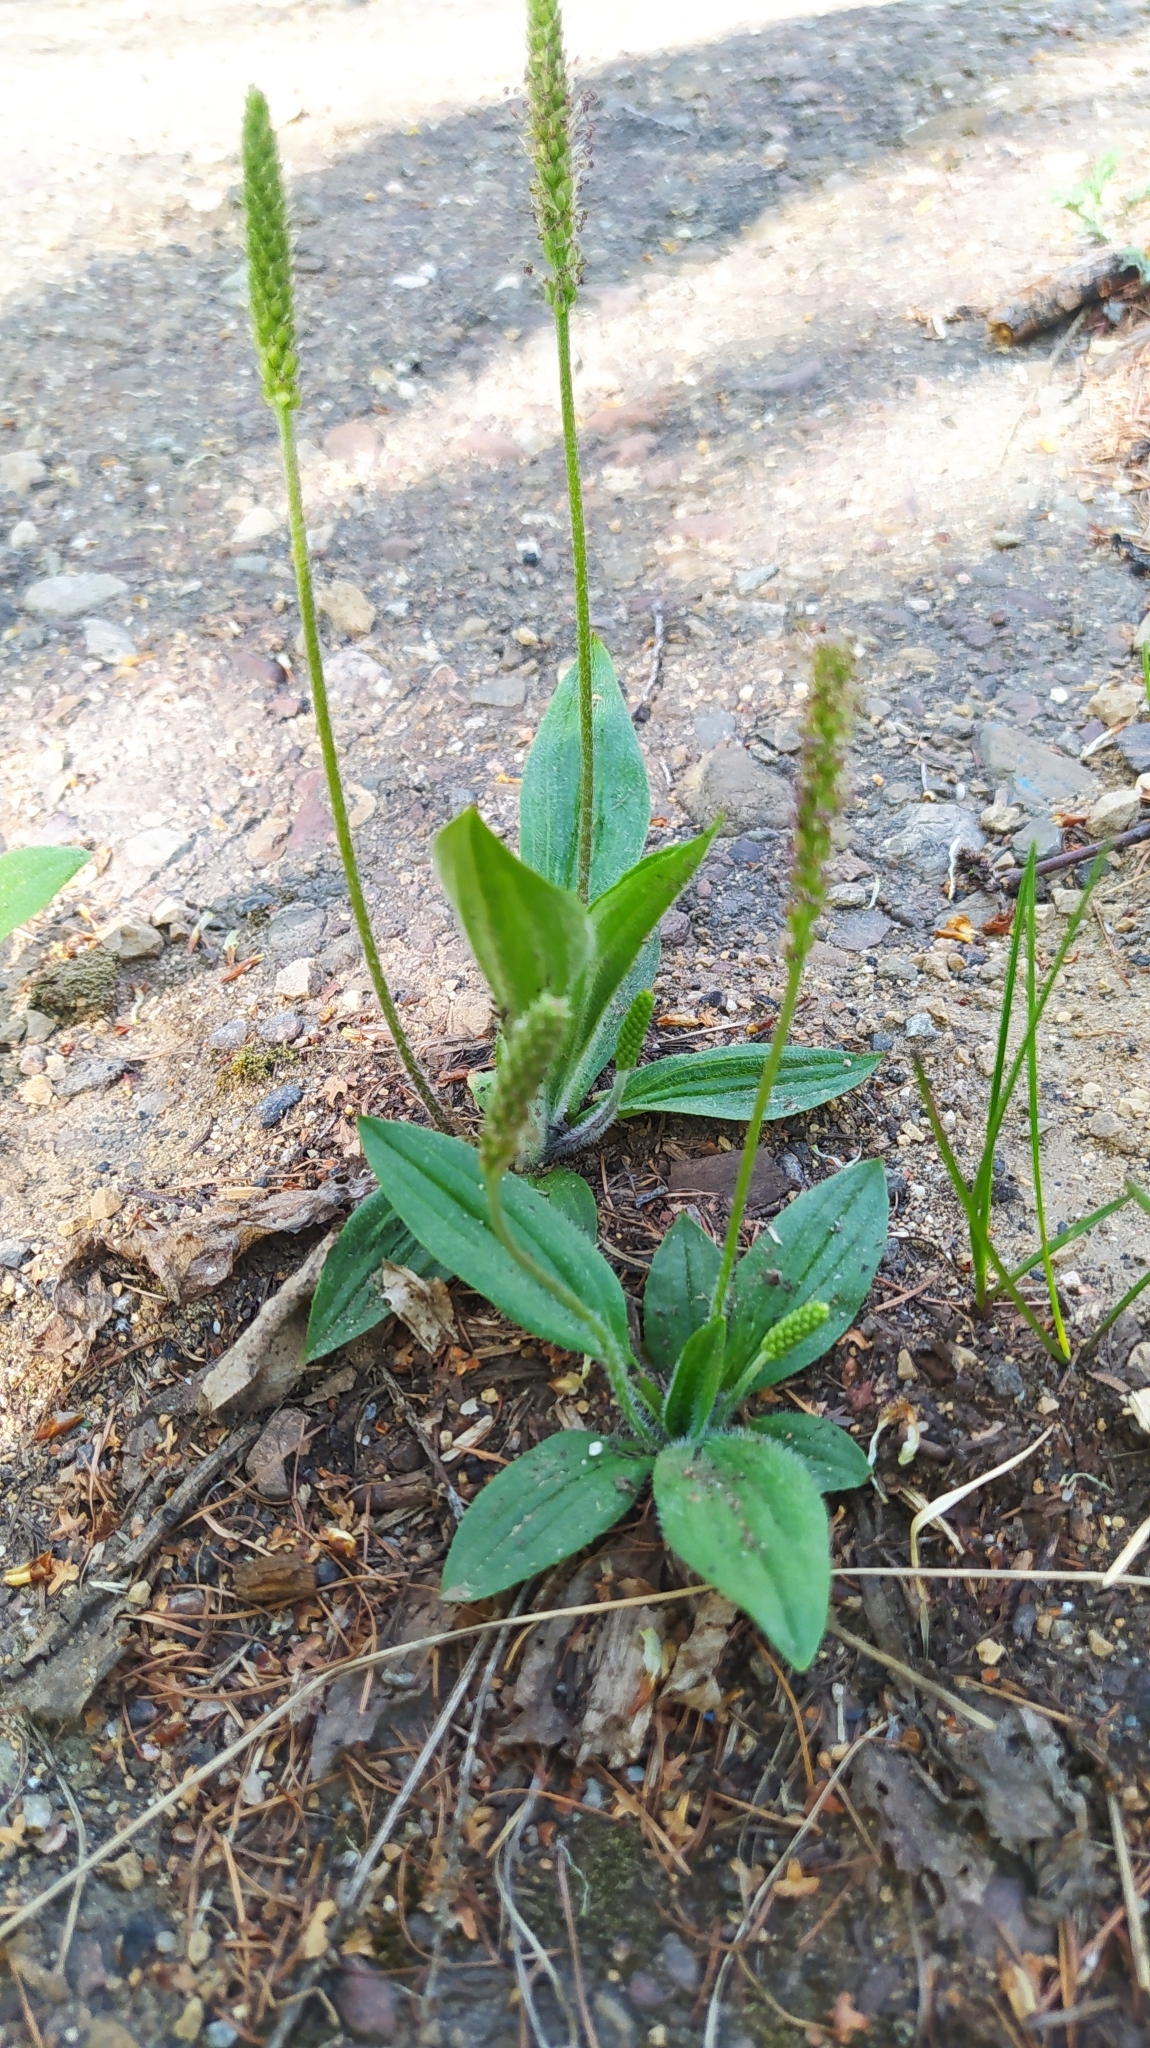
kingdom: Plantae
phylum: Tracheophyta
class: Magnoliopsida
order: Lamiales
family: Plantaginaceae
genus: Plantago
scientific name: Plantago depressa
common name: Depressed plantain
